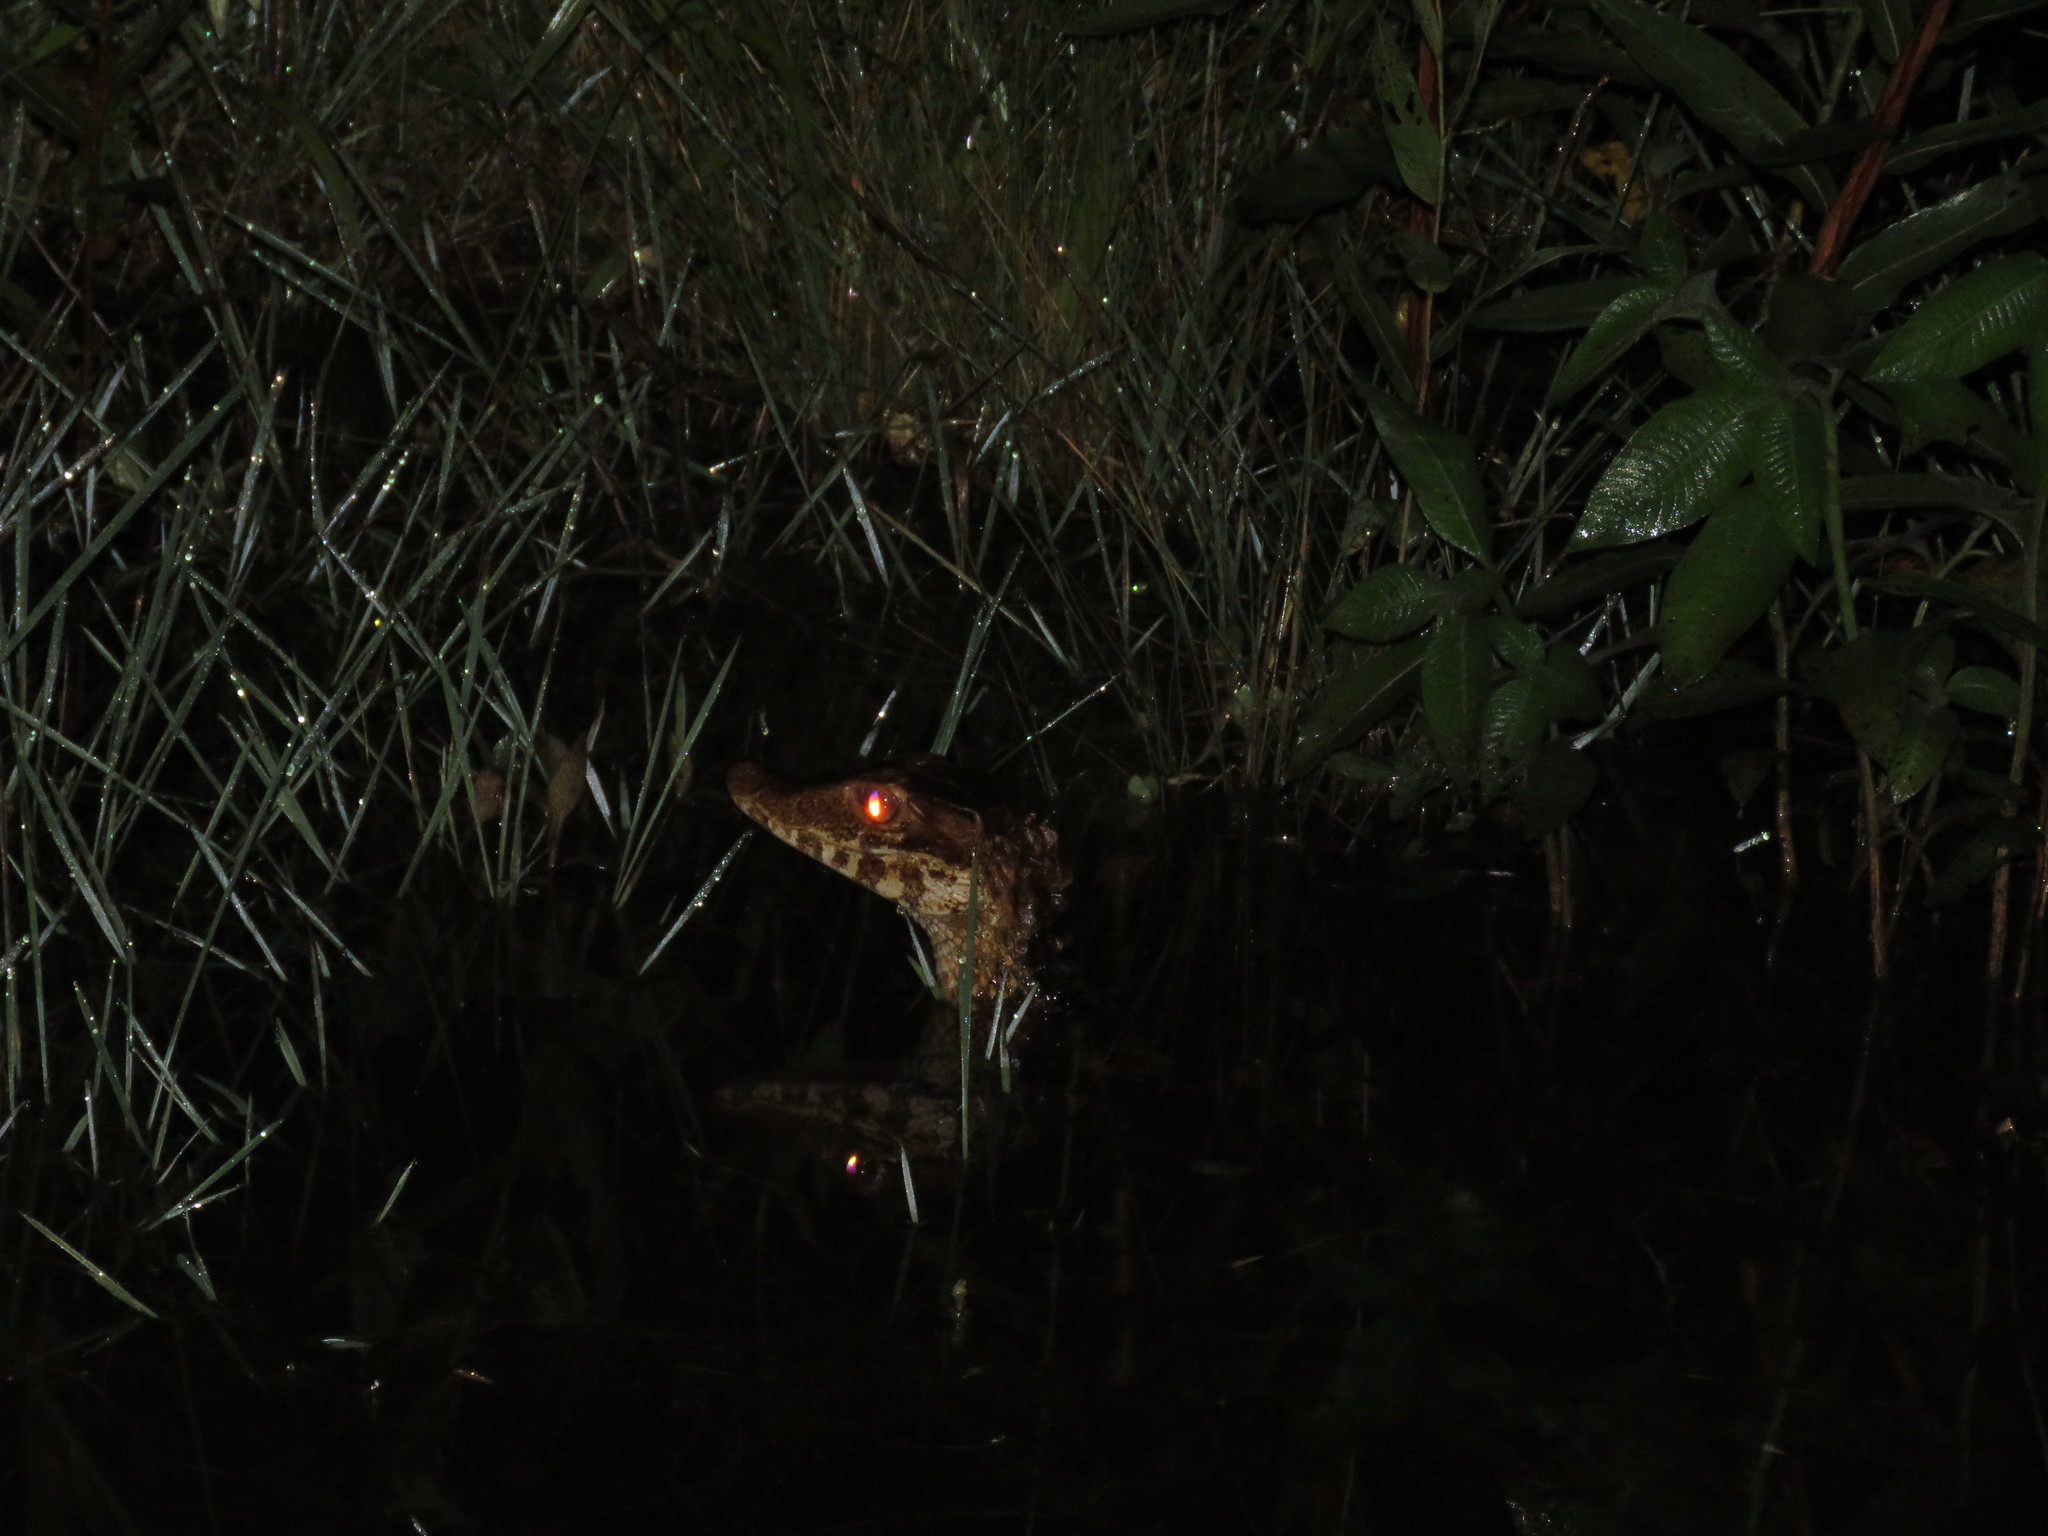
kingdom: Animalia
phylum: Chordata
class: Crocodylia
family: Alligatoridae
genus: Paleosuchus
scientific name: Paleosuchus trigonatus
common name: Schneider's smooth-fronted caiman
